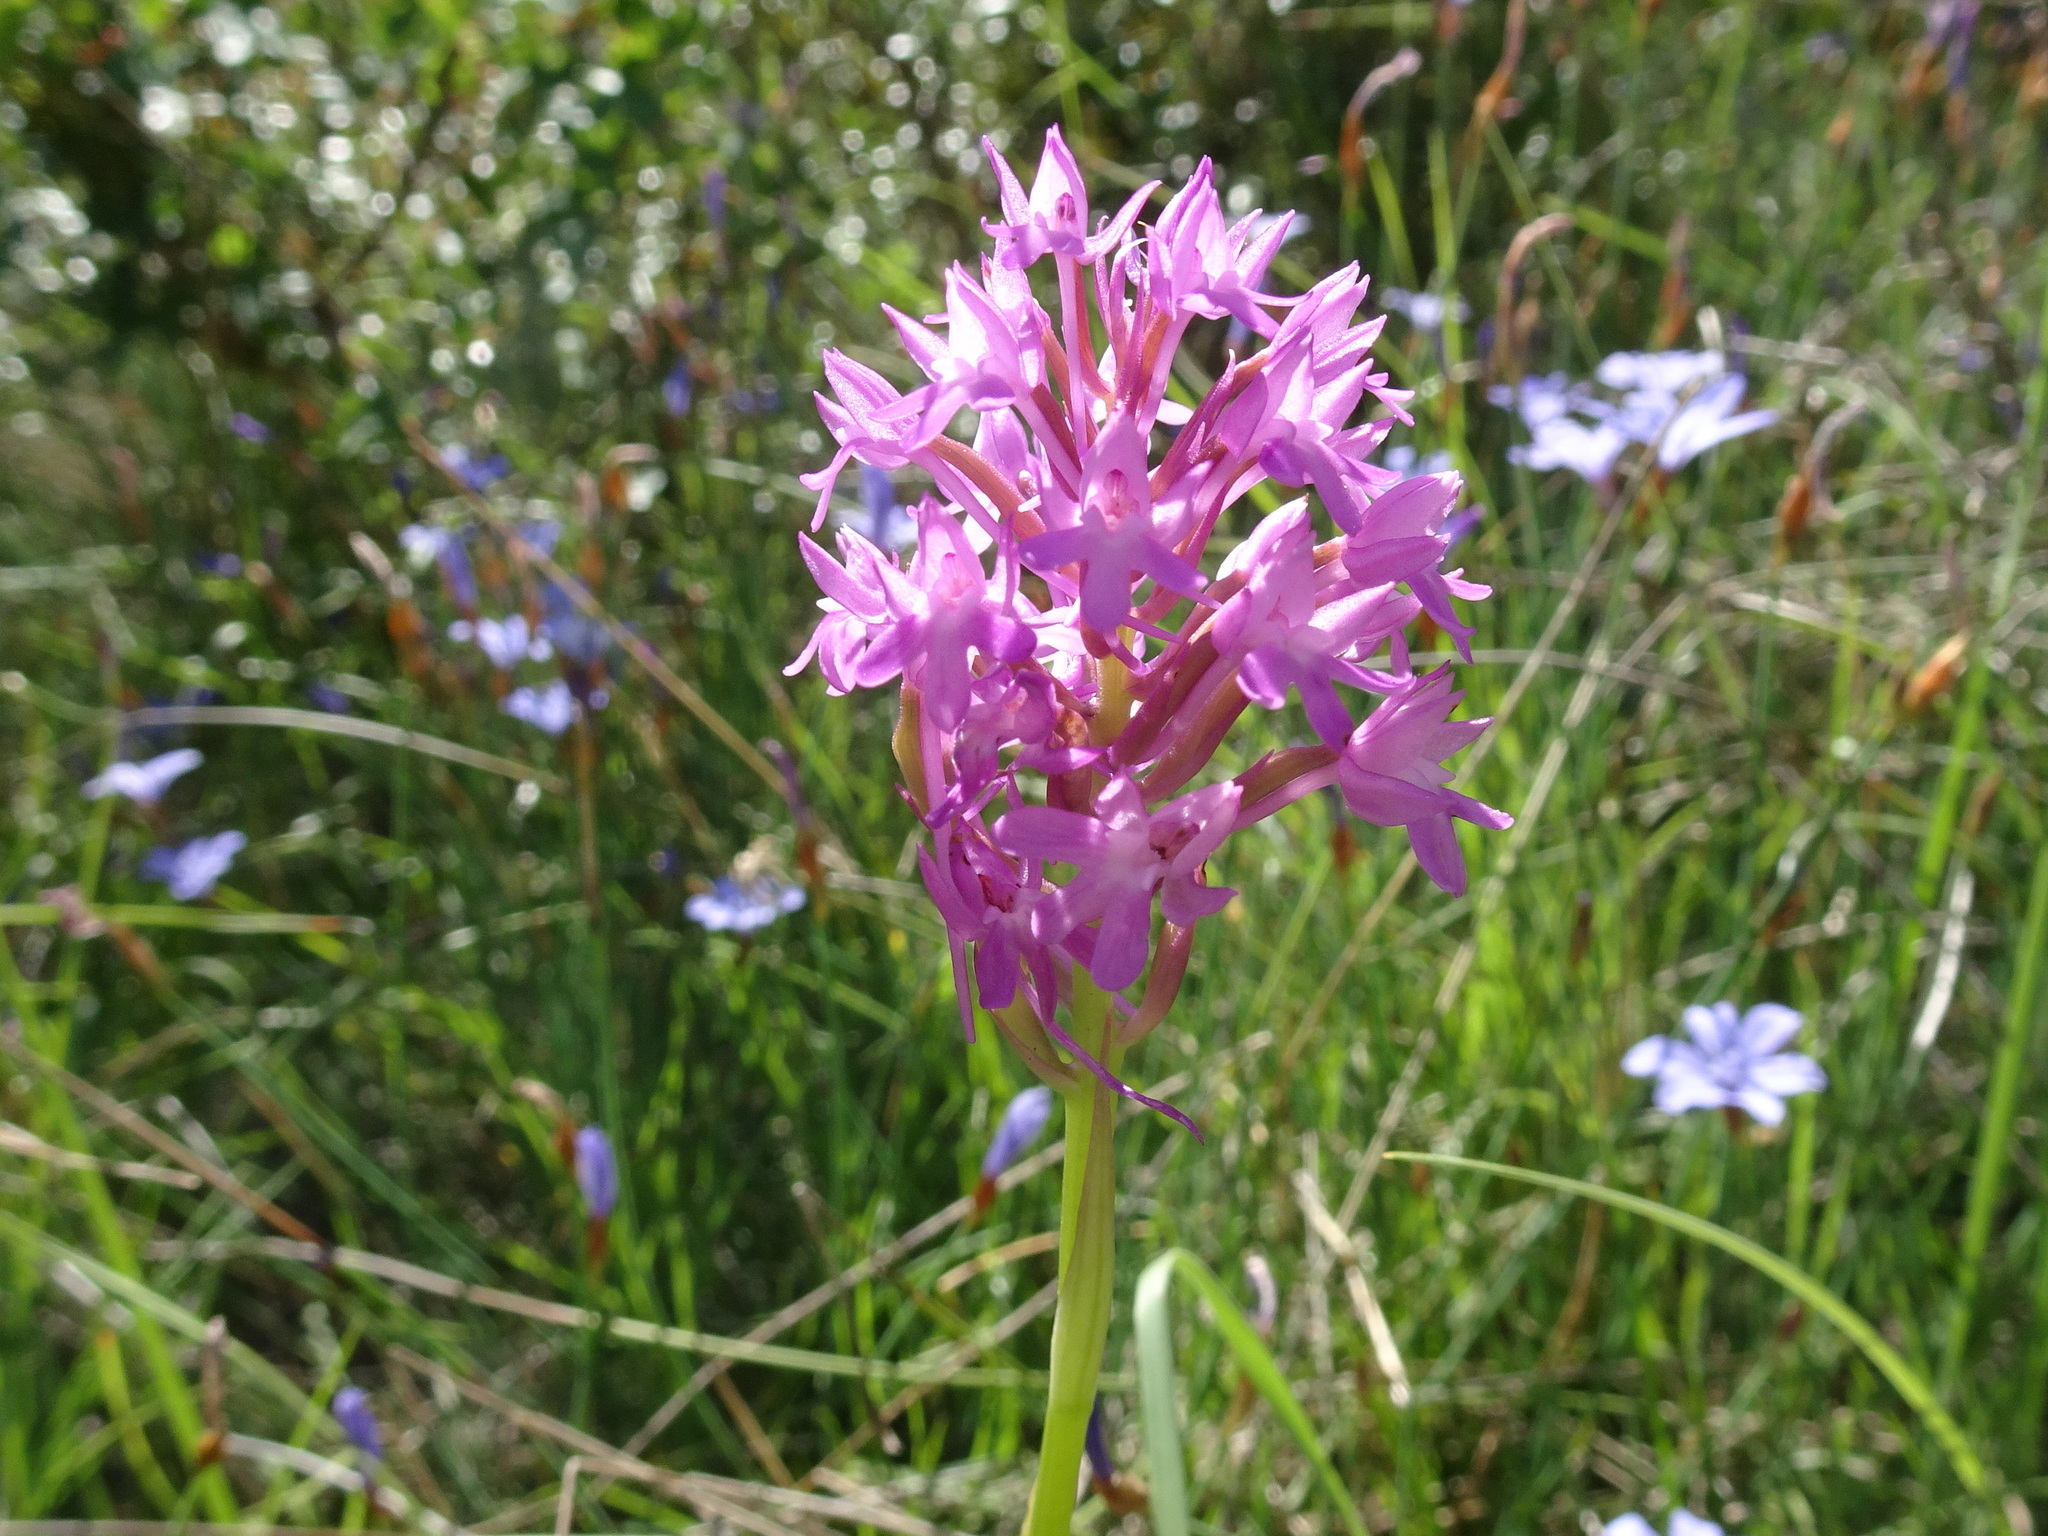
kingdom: Plantae
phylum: Tracheophyta
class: Liliopsida
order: Asparagales
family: Orchidaceae
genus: Anacamptis
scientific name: Anacamptis pyramidalis
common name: Pyramidal orchid
